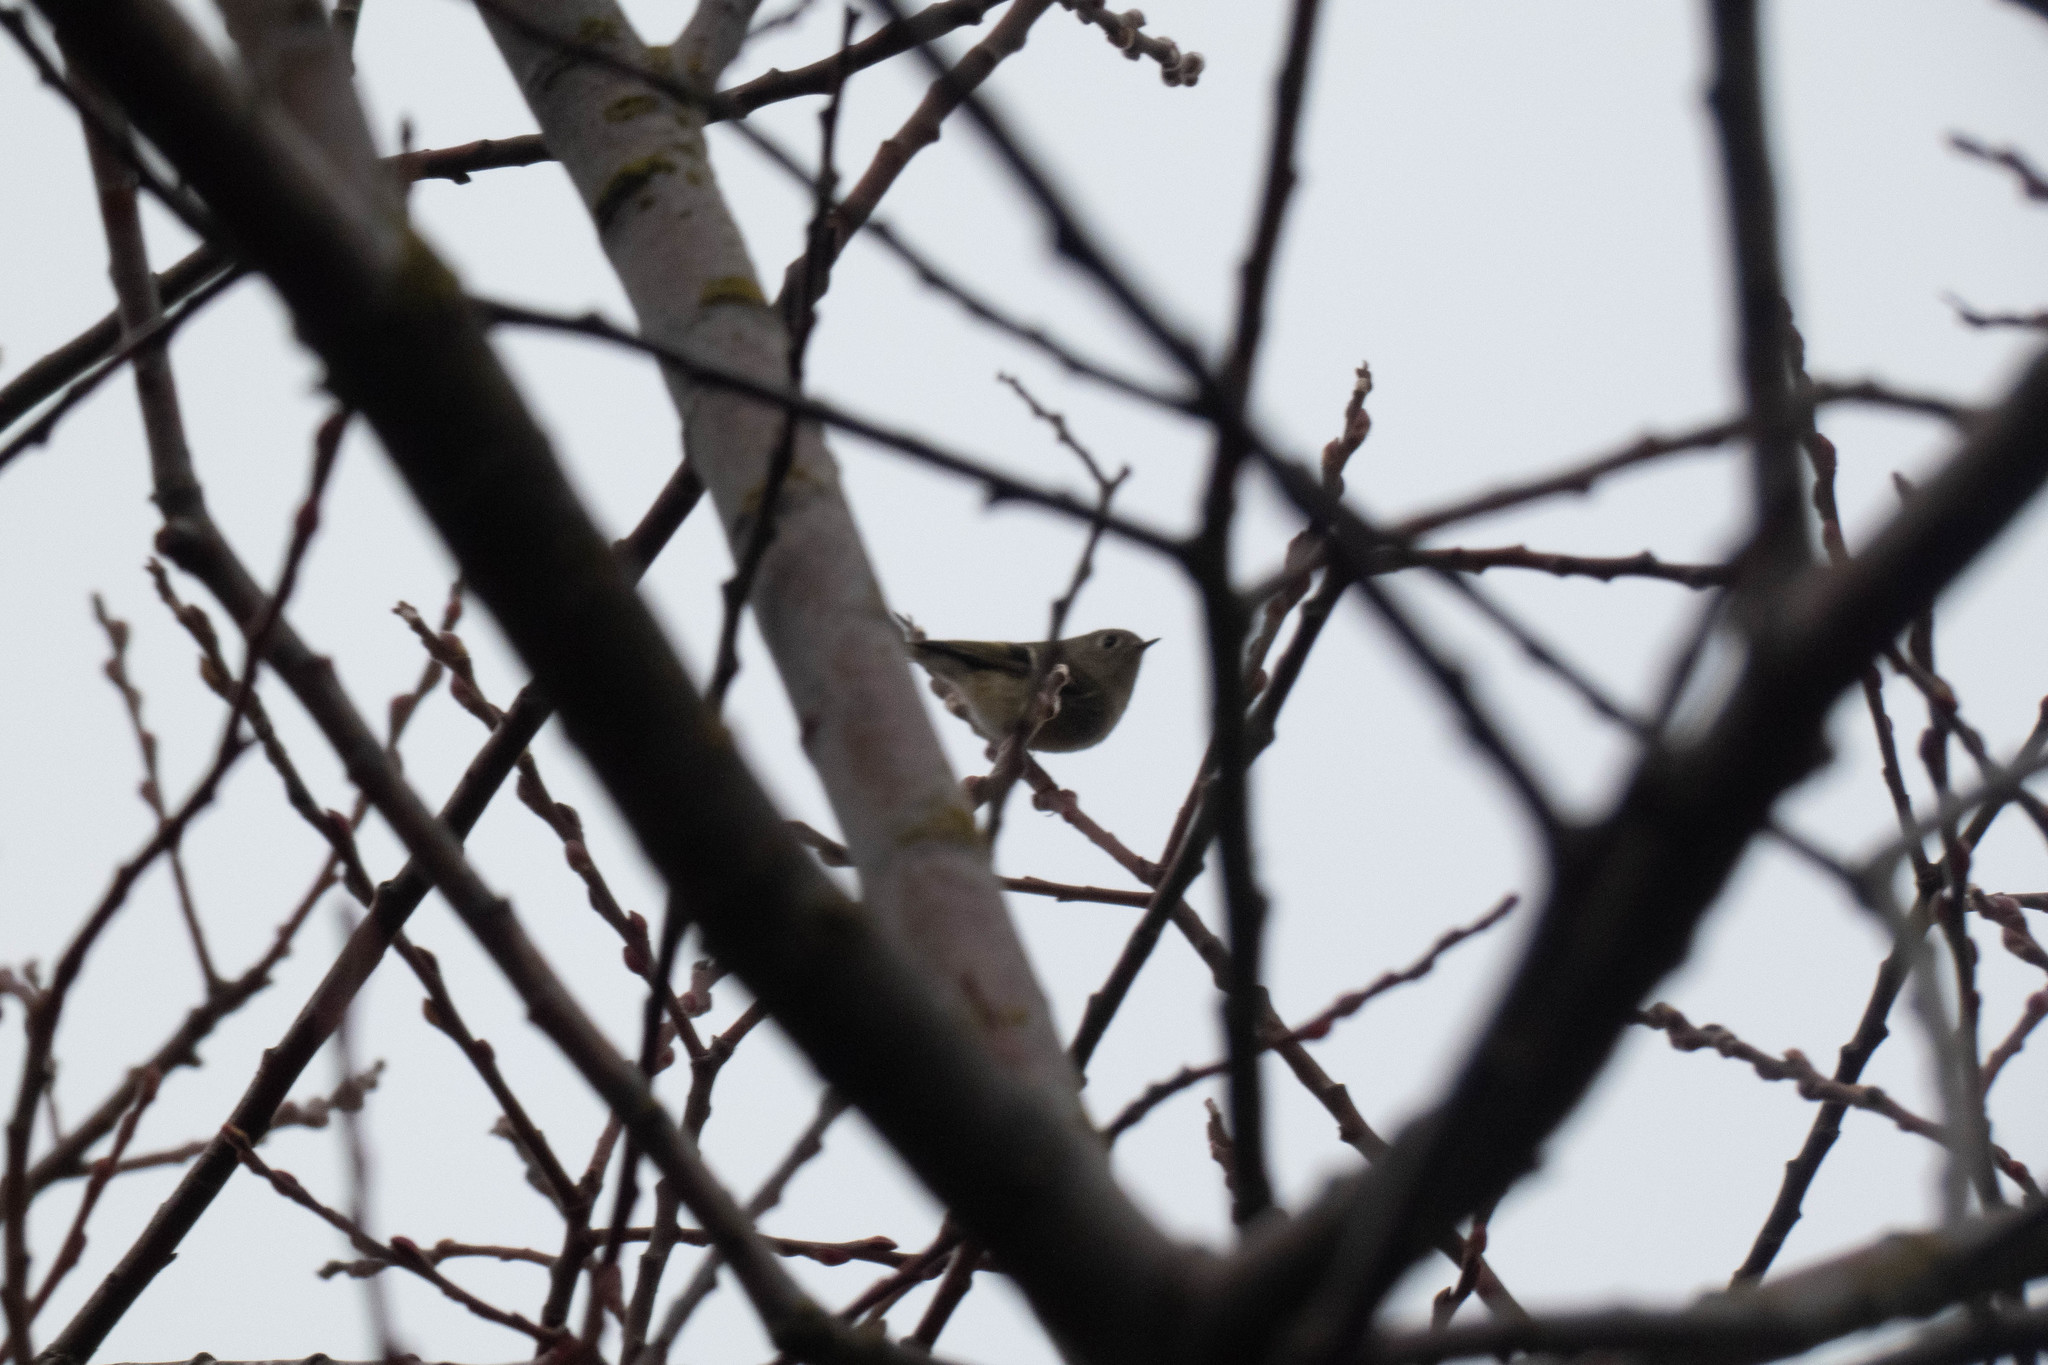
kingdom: Animalia
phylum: Chordata
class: Aves
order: Passeriformes
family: Regulidae
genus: Regulus
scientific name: Regulus calendula
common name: Ruby-crowned kinglet
